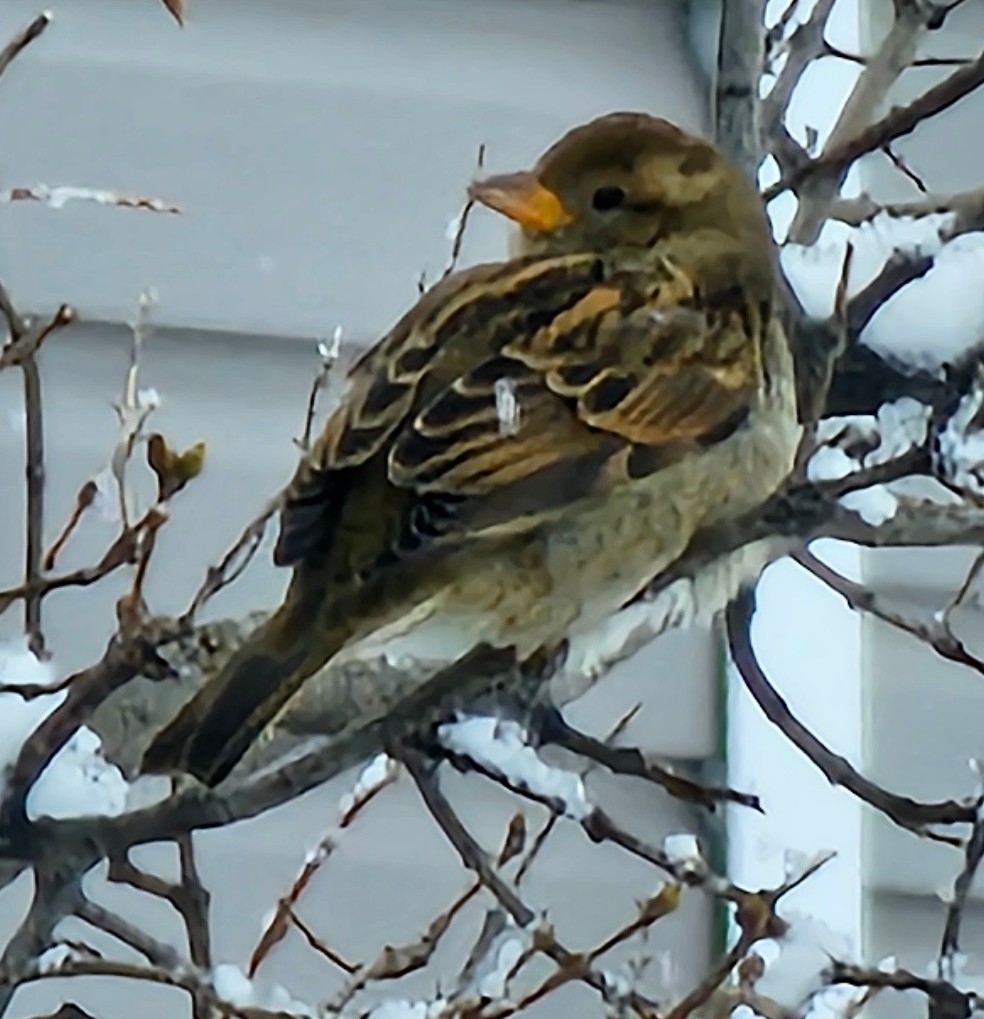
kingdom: Animalia
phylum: Chordata
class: Aves
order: Passeriformes
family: Passeridae
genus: Passer
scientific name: Passer domesticus
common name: House sparrow
